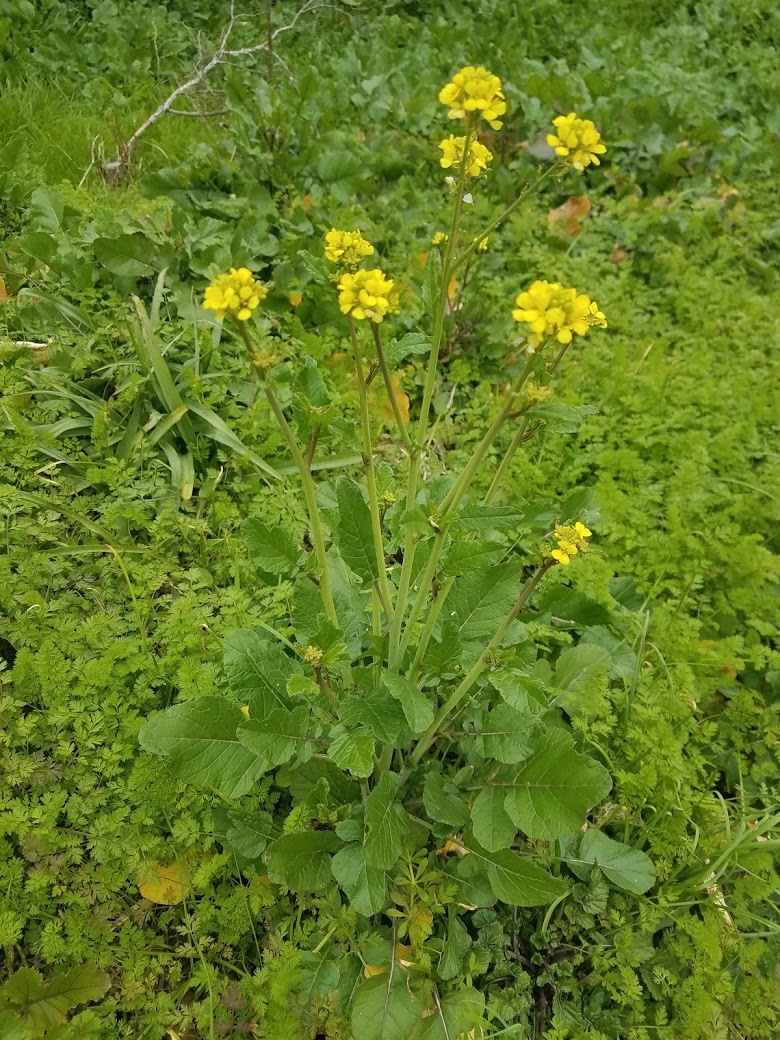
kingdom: Plantae
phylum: Tracheophyta
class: Magnoliopsida
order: Brassicales
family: Brassicaceae
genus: Rapistrum
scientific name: Rapistrum rugosum
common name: Annual bastardcabbage
